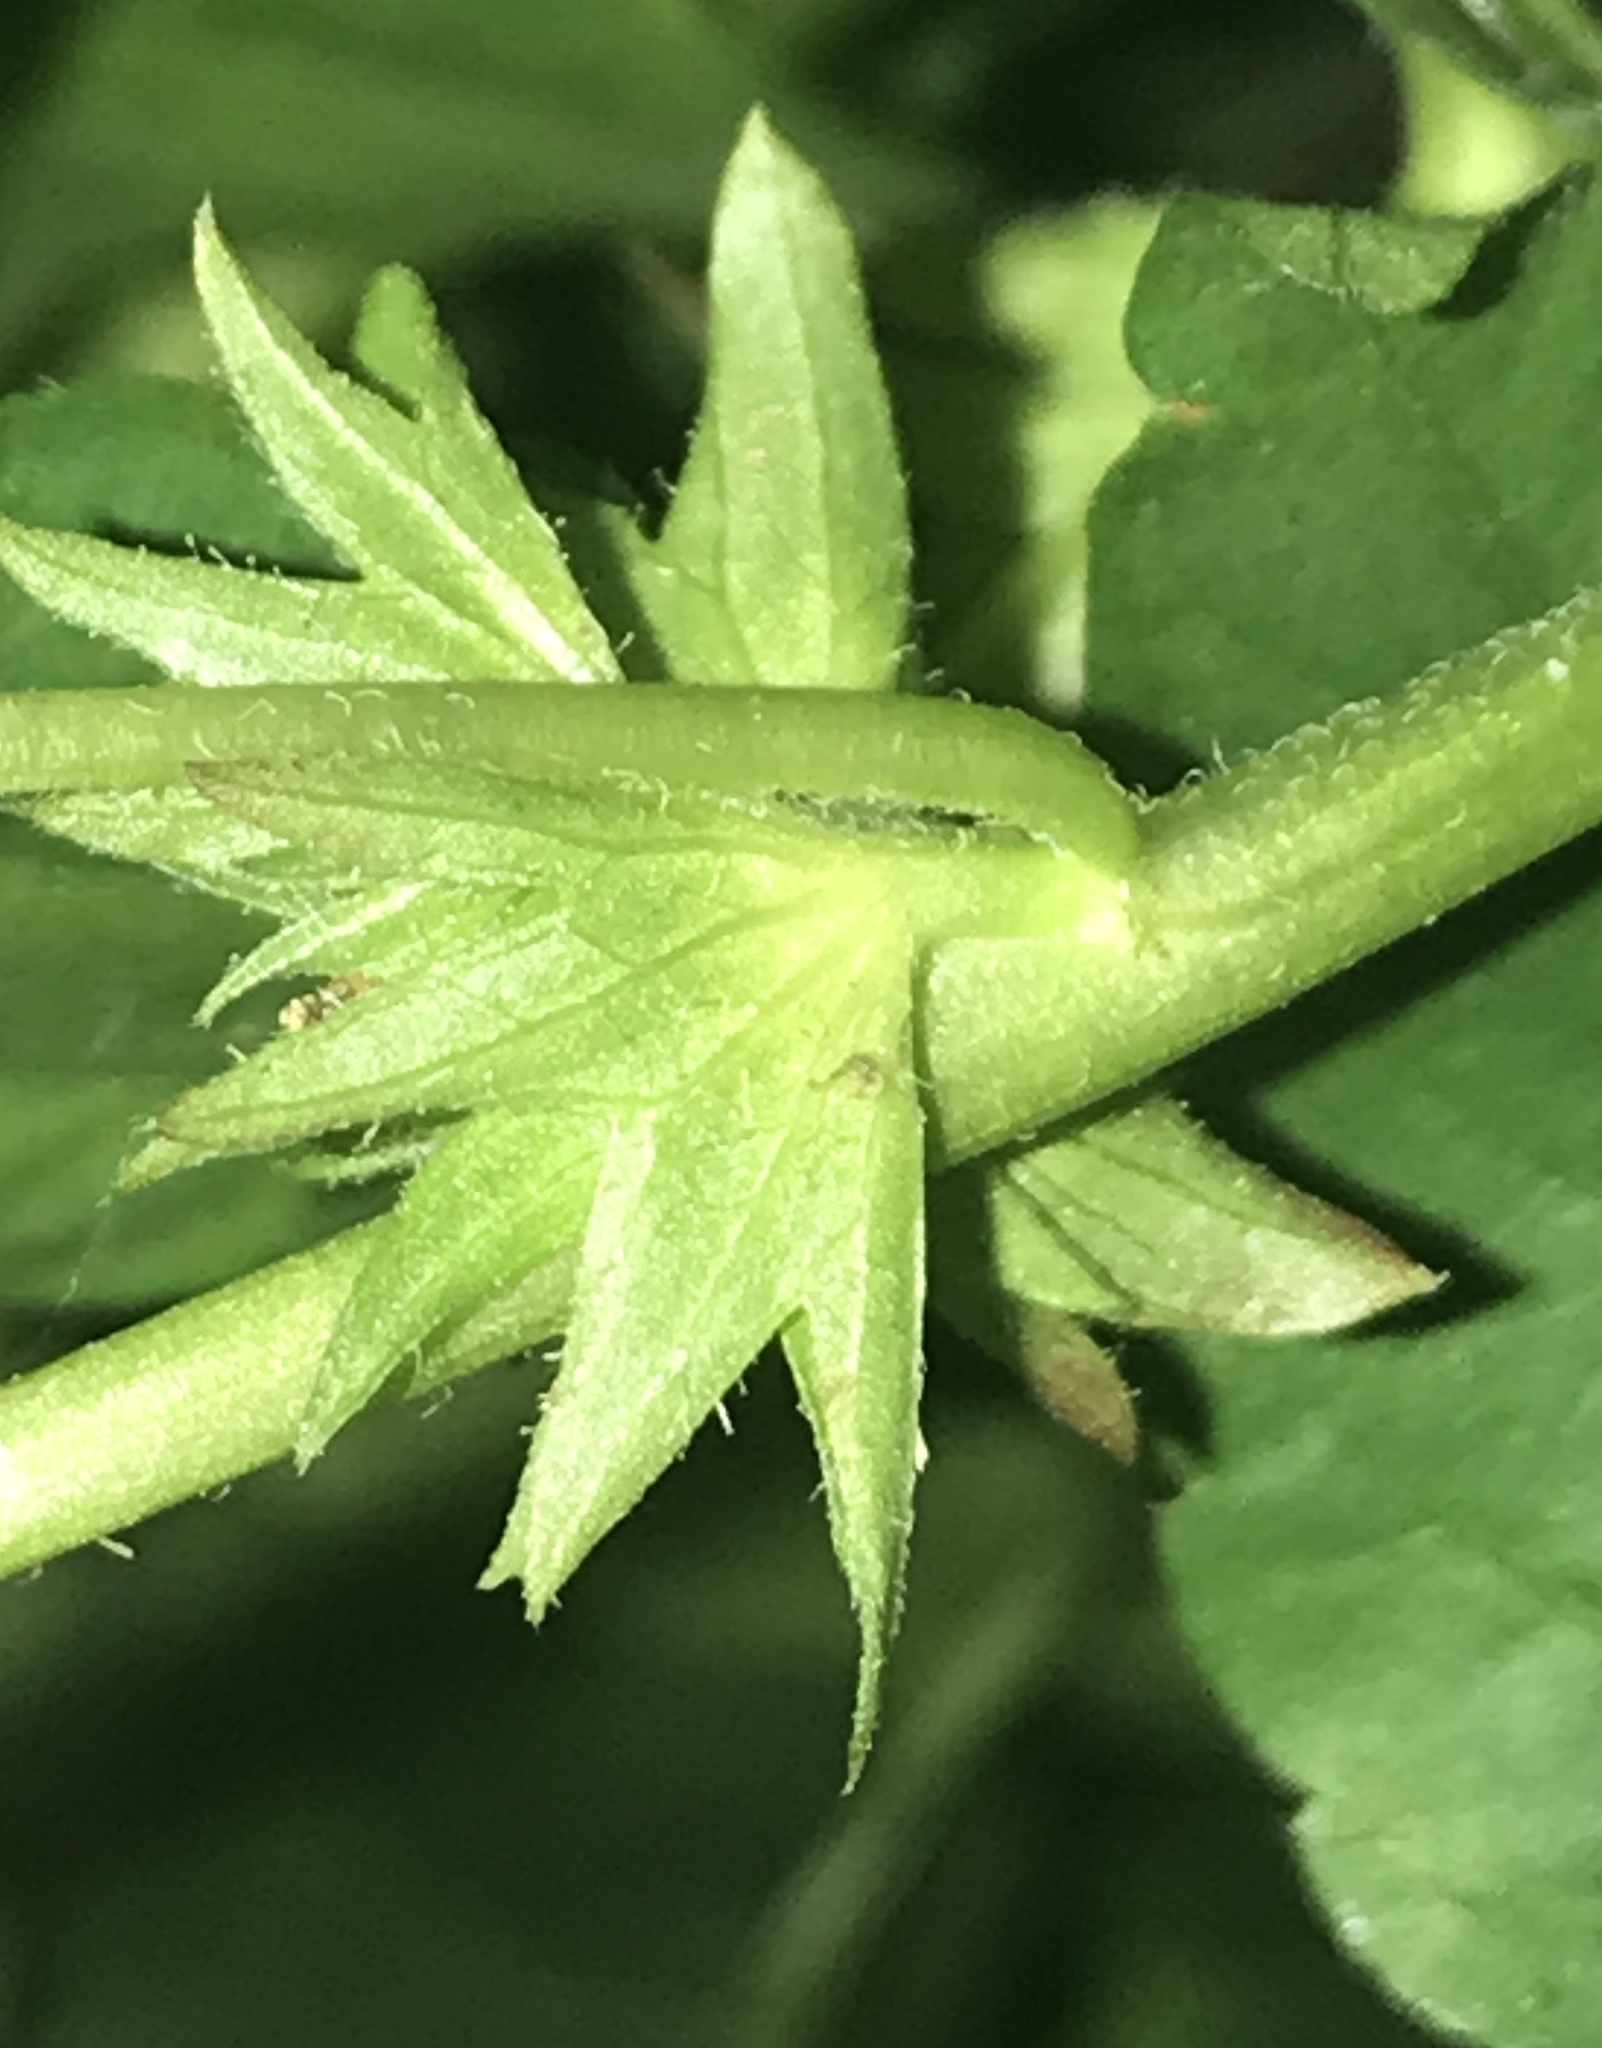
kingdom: Plantae
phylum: Tracheophyta
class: Magnoliopsida
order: Malpighiales
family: Euphorbiaceae
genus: Acalypha
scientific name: Acalypha rhomboidea
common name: Rhombic copperleaf
